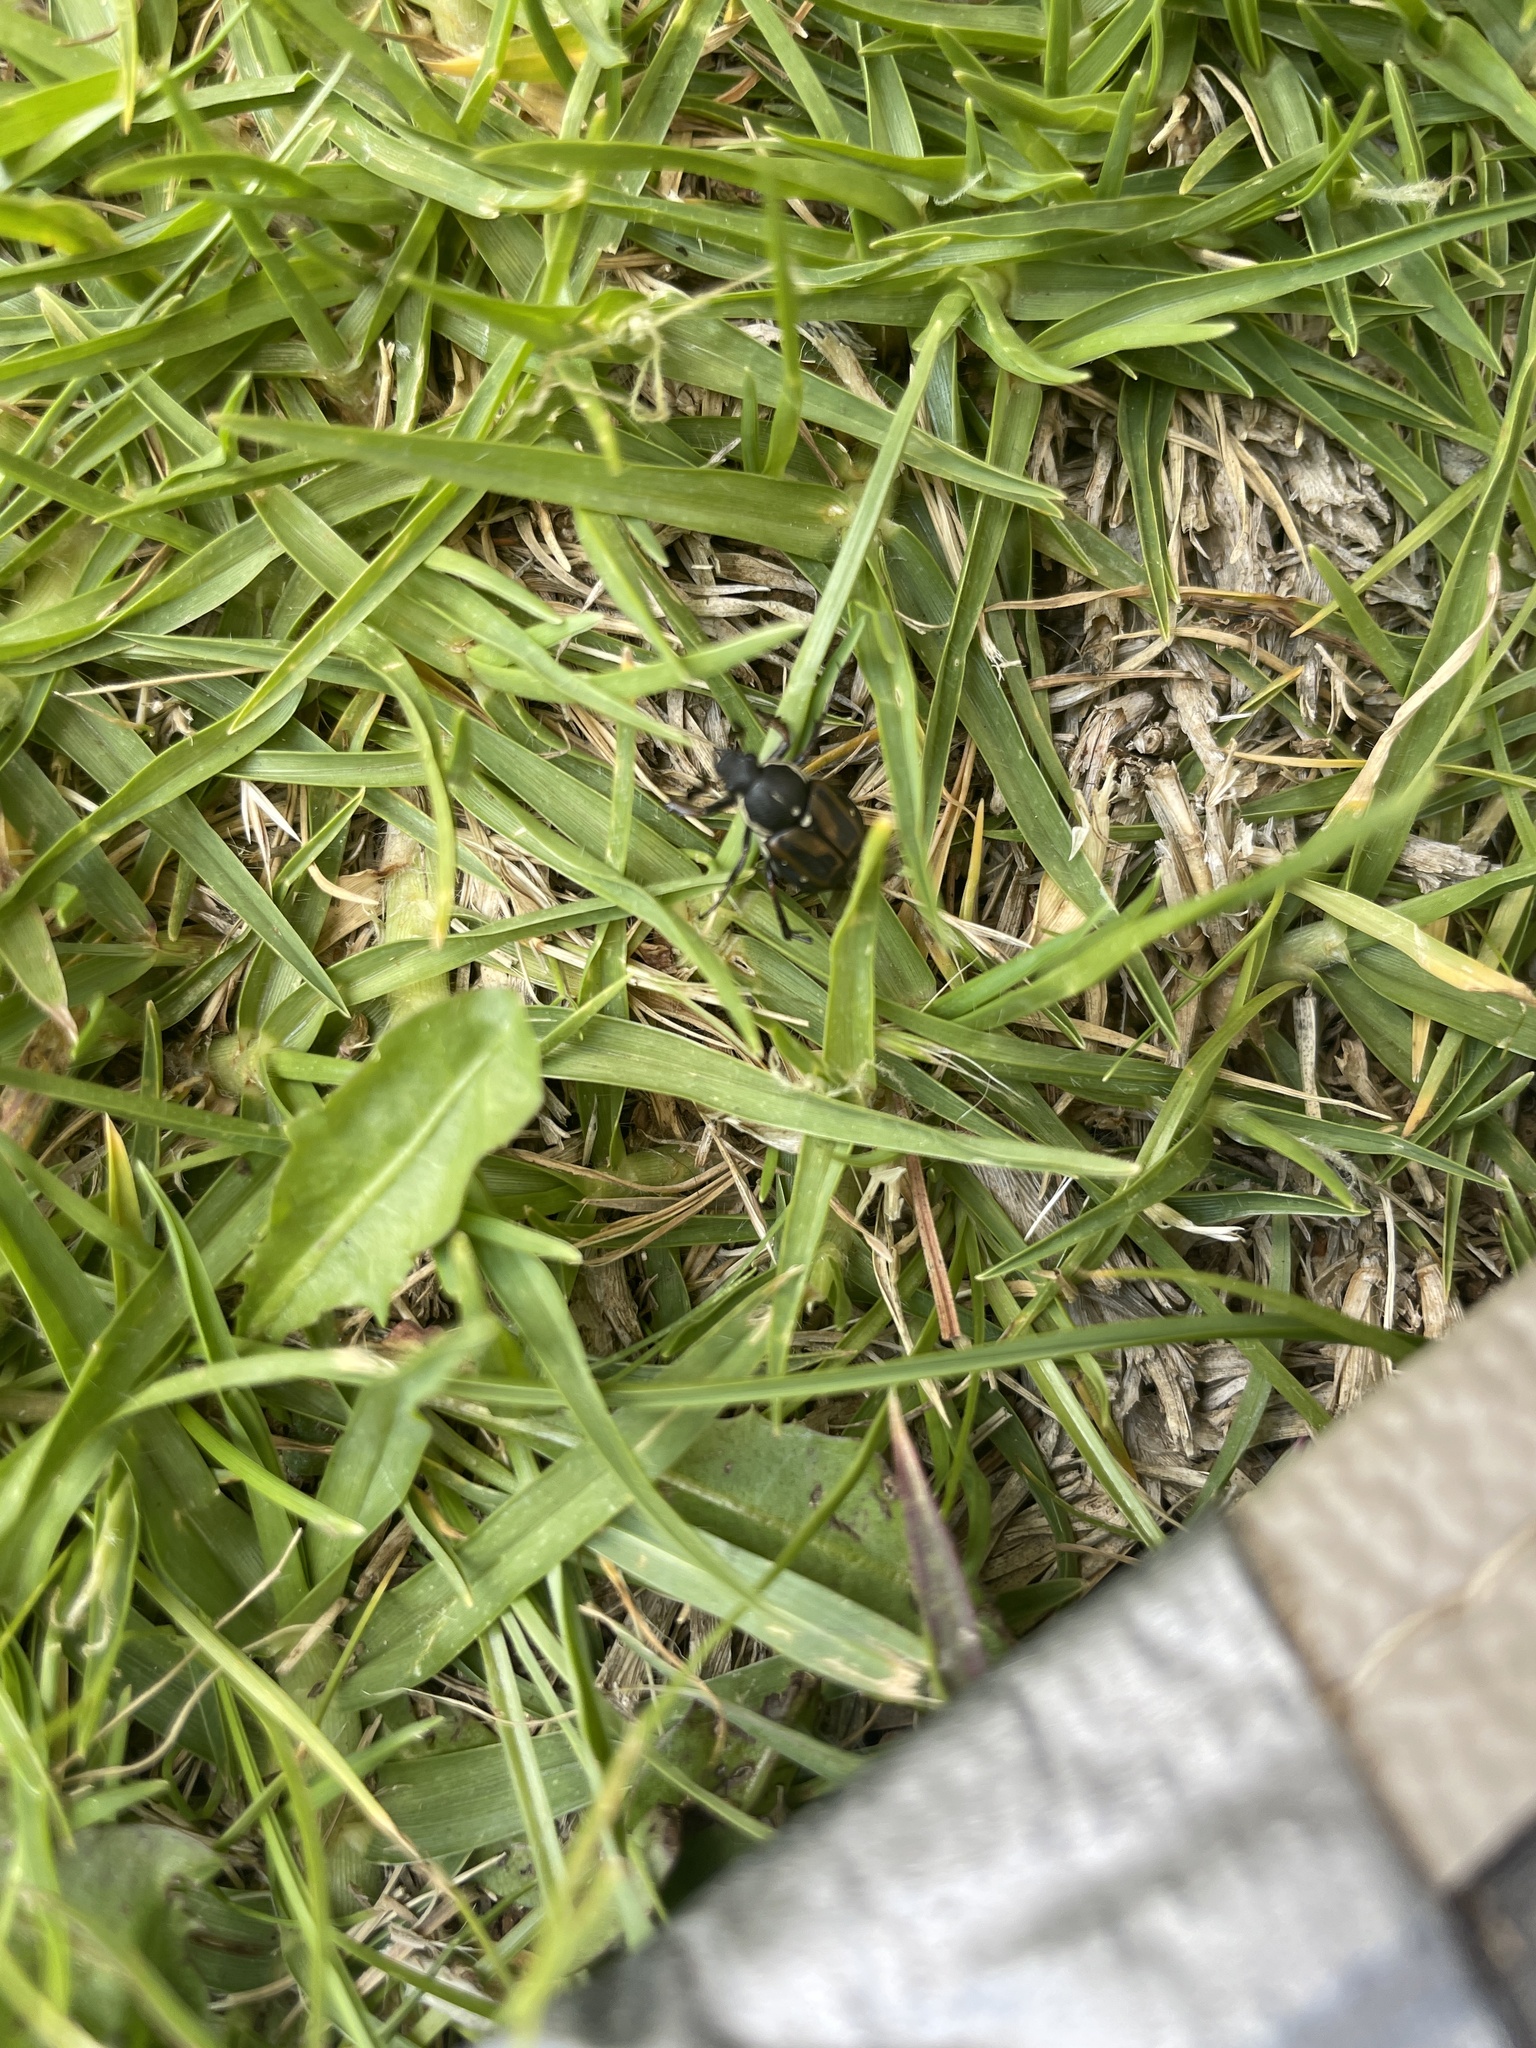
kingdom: Animalia
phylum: Arthropoda
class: Insecta
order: Coleoptera
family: Scarabaeidae
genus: Stripsipher
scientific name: Stripsipher signatulus
